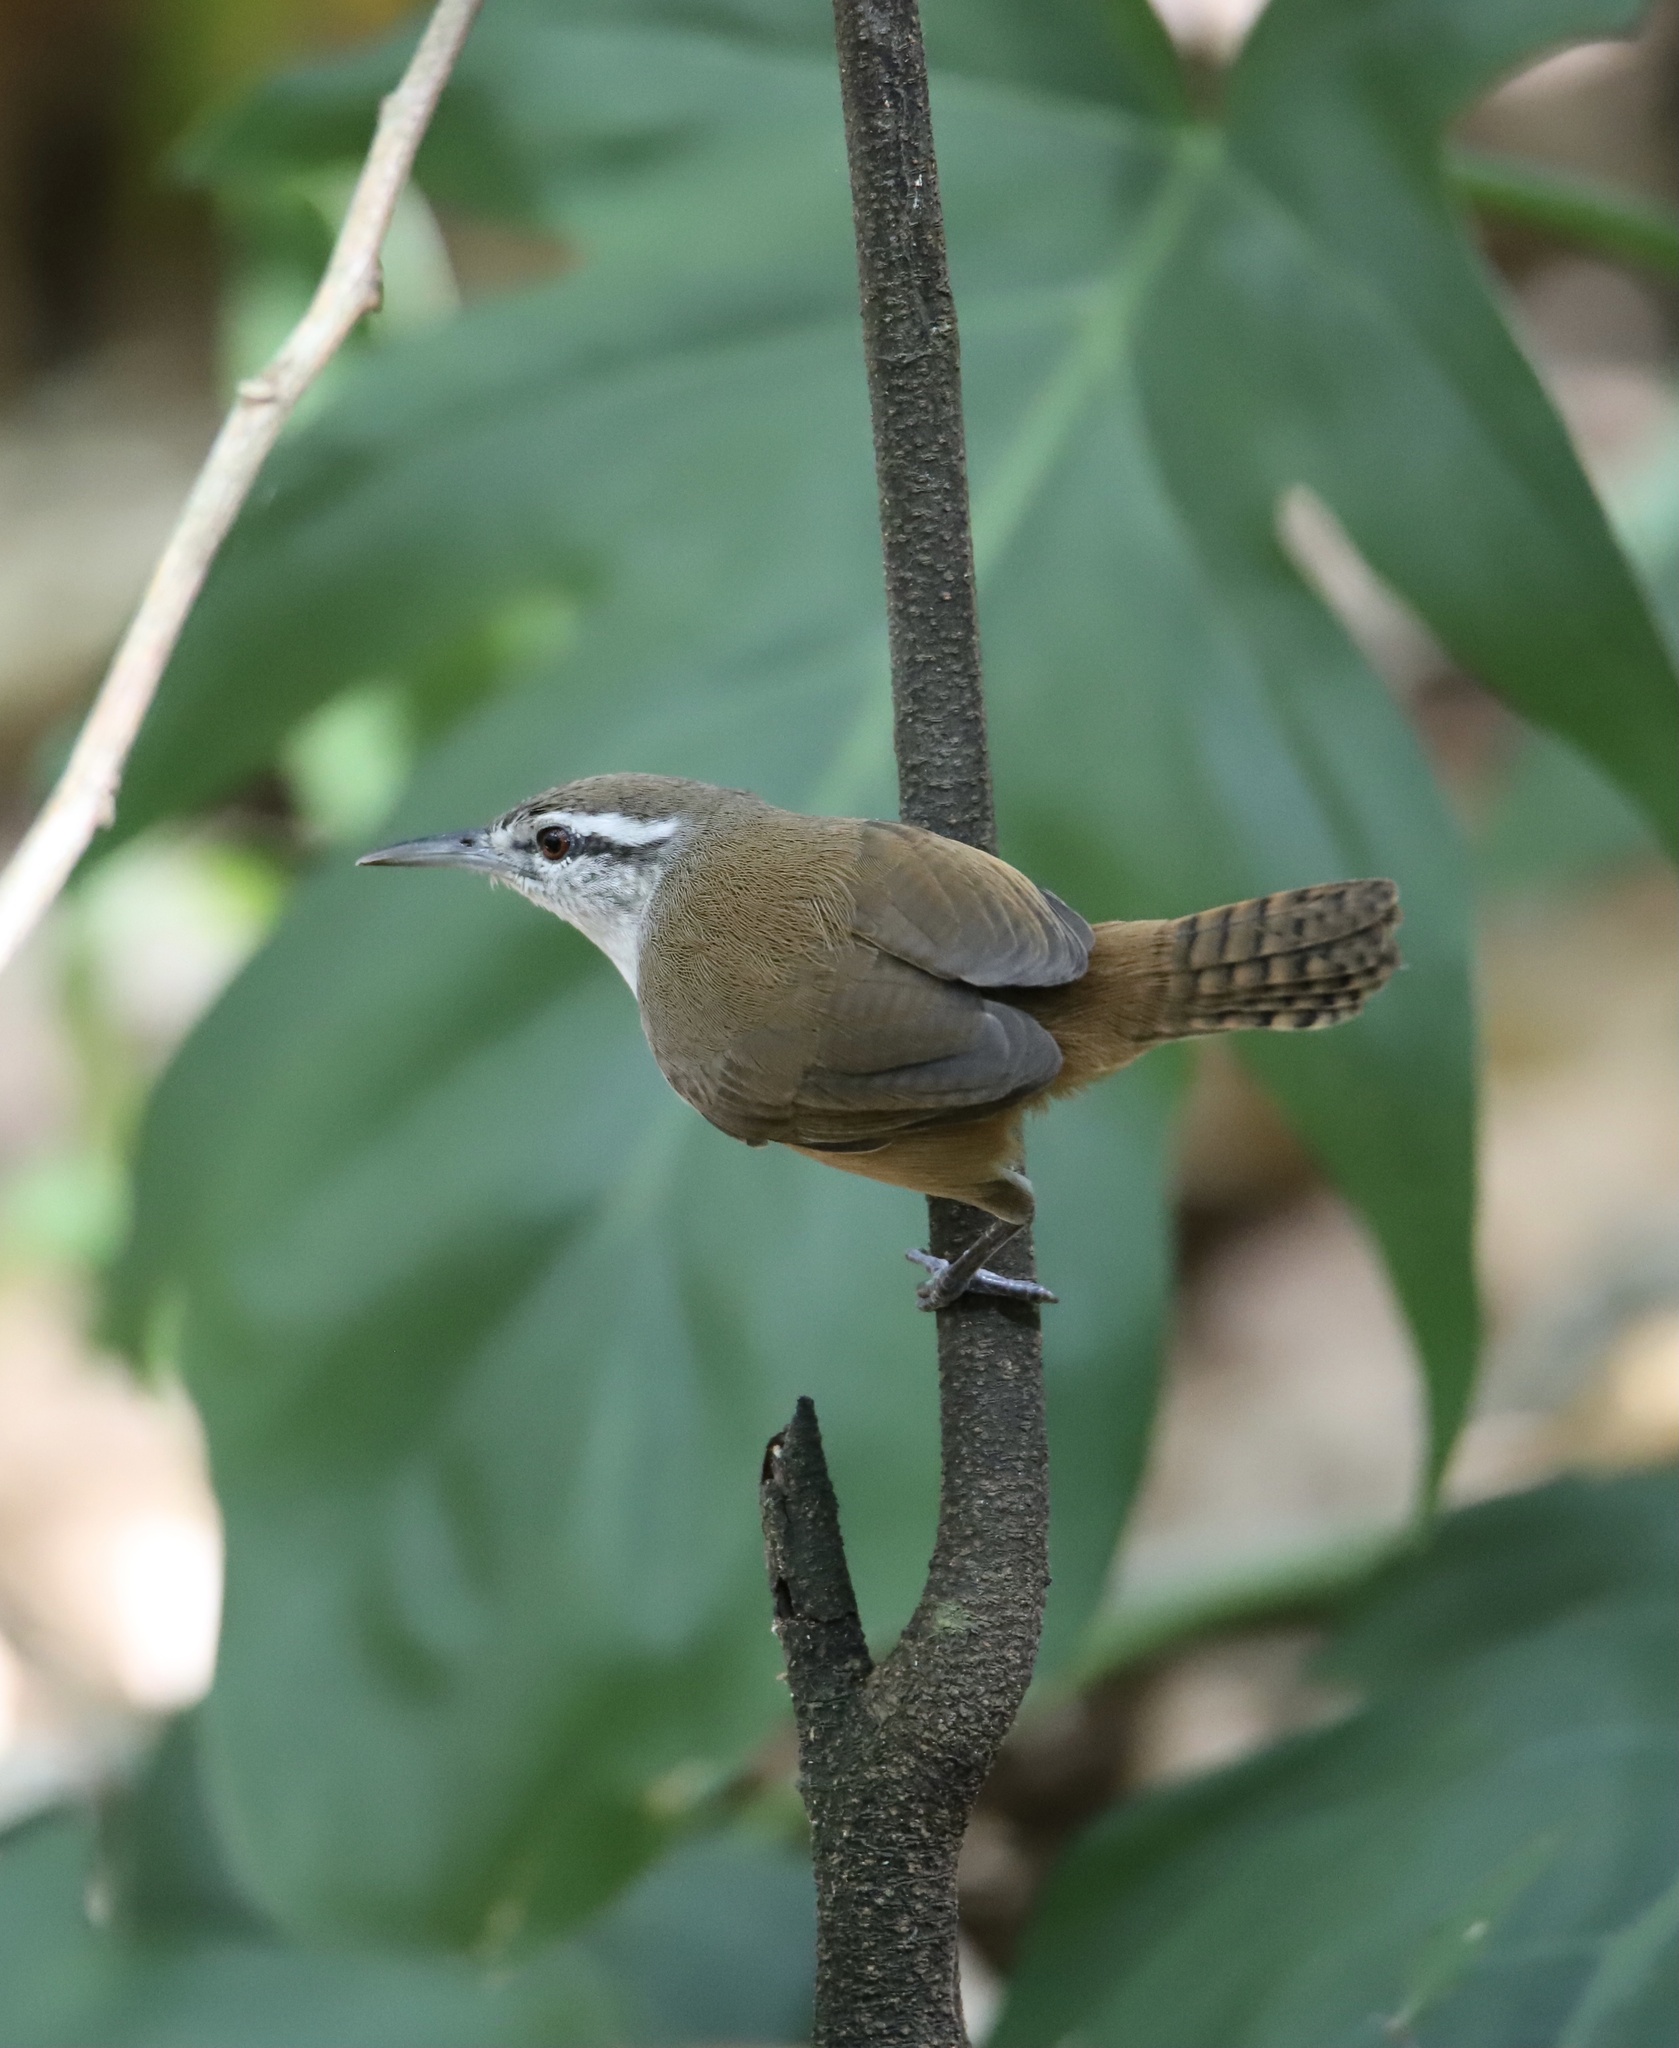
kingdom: Animalia
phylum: Chordata
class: Aves
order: Passeriformes
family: Troglodytidae
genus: Cantorchilus
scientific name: Cantorchilus modestus
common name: Cabanis's wren
